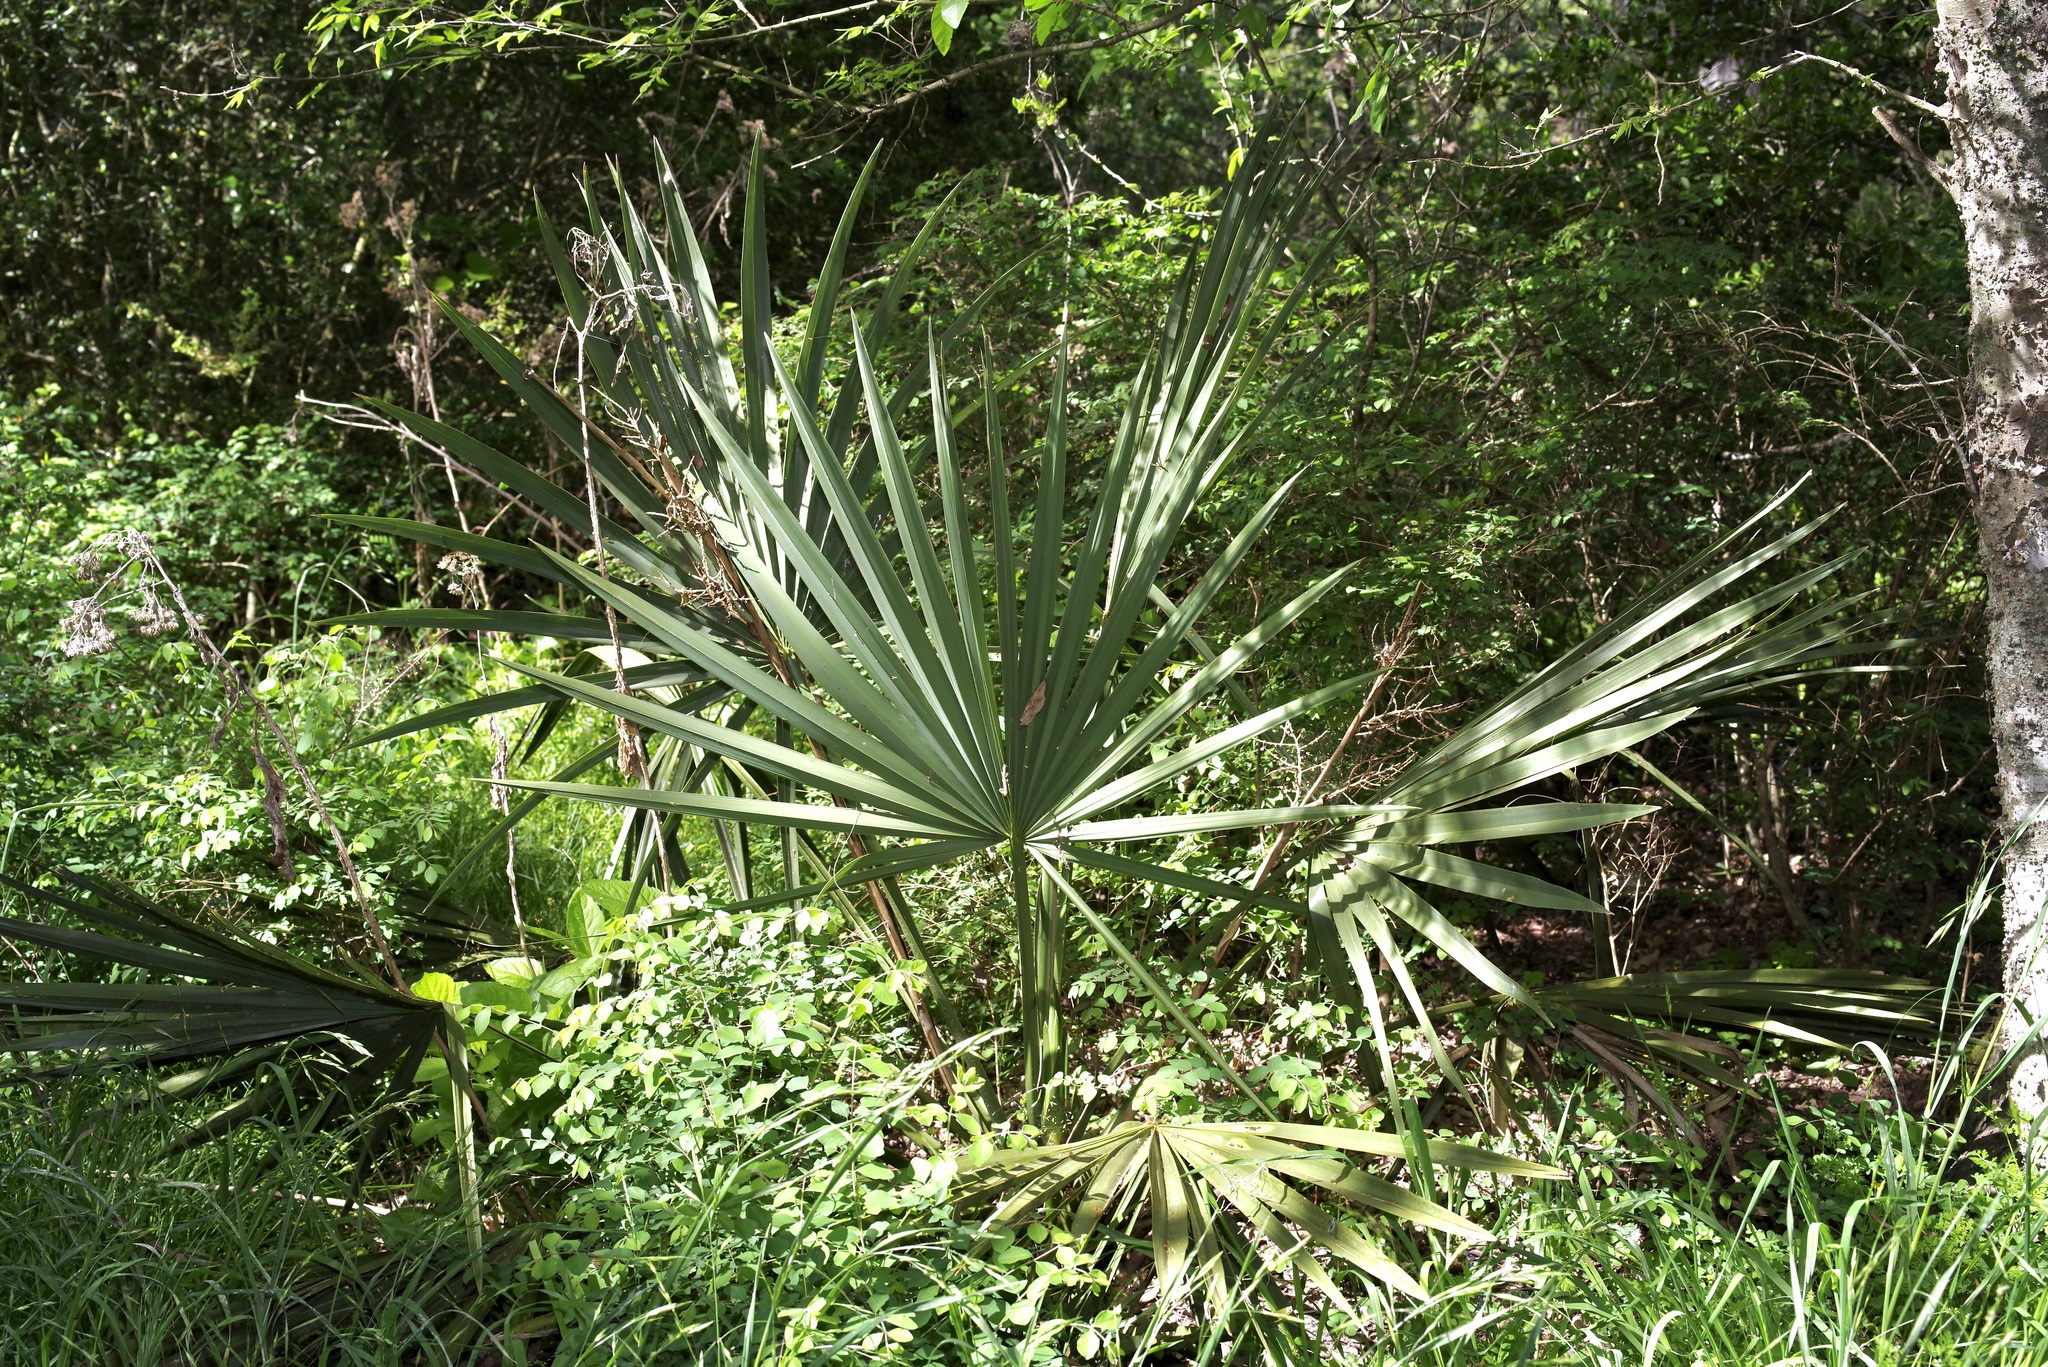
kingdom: Plantae
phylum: Tracheophyta
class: Liliopsida
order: Arecales
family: Arecaceae
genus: Sabal
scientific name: Sabal minor
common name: Dwarf palmetto
